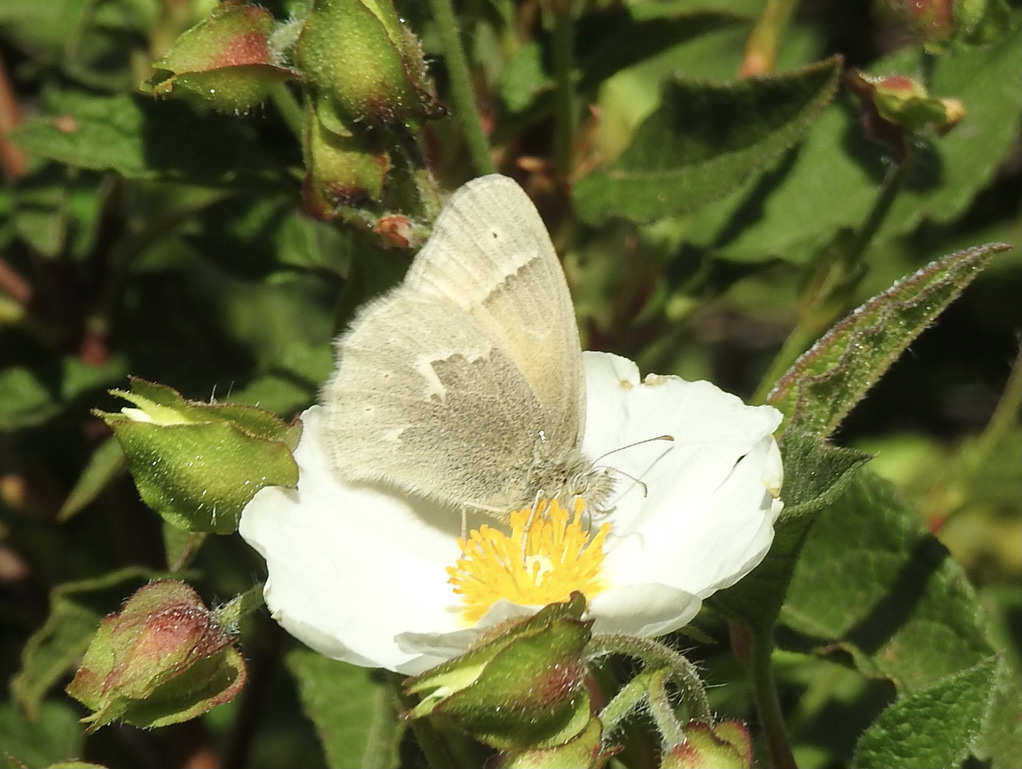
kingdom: Animalia
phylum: Arthropoda
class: Insecta
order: Lepidoptera
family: Nymphalidae
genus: Coenonympha
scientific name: Coenonympha california
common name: Common ringlet
